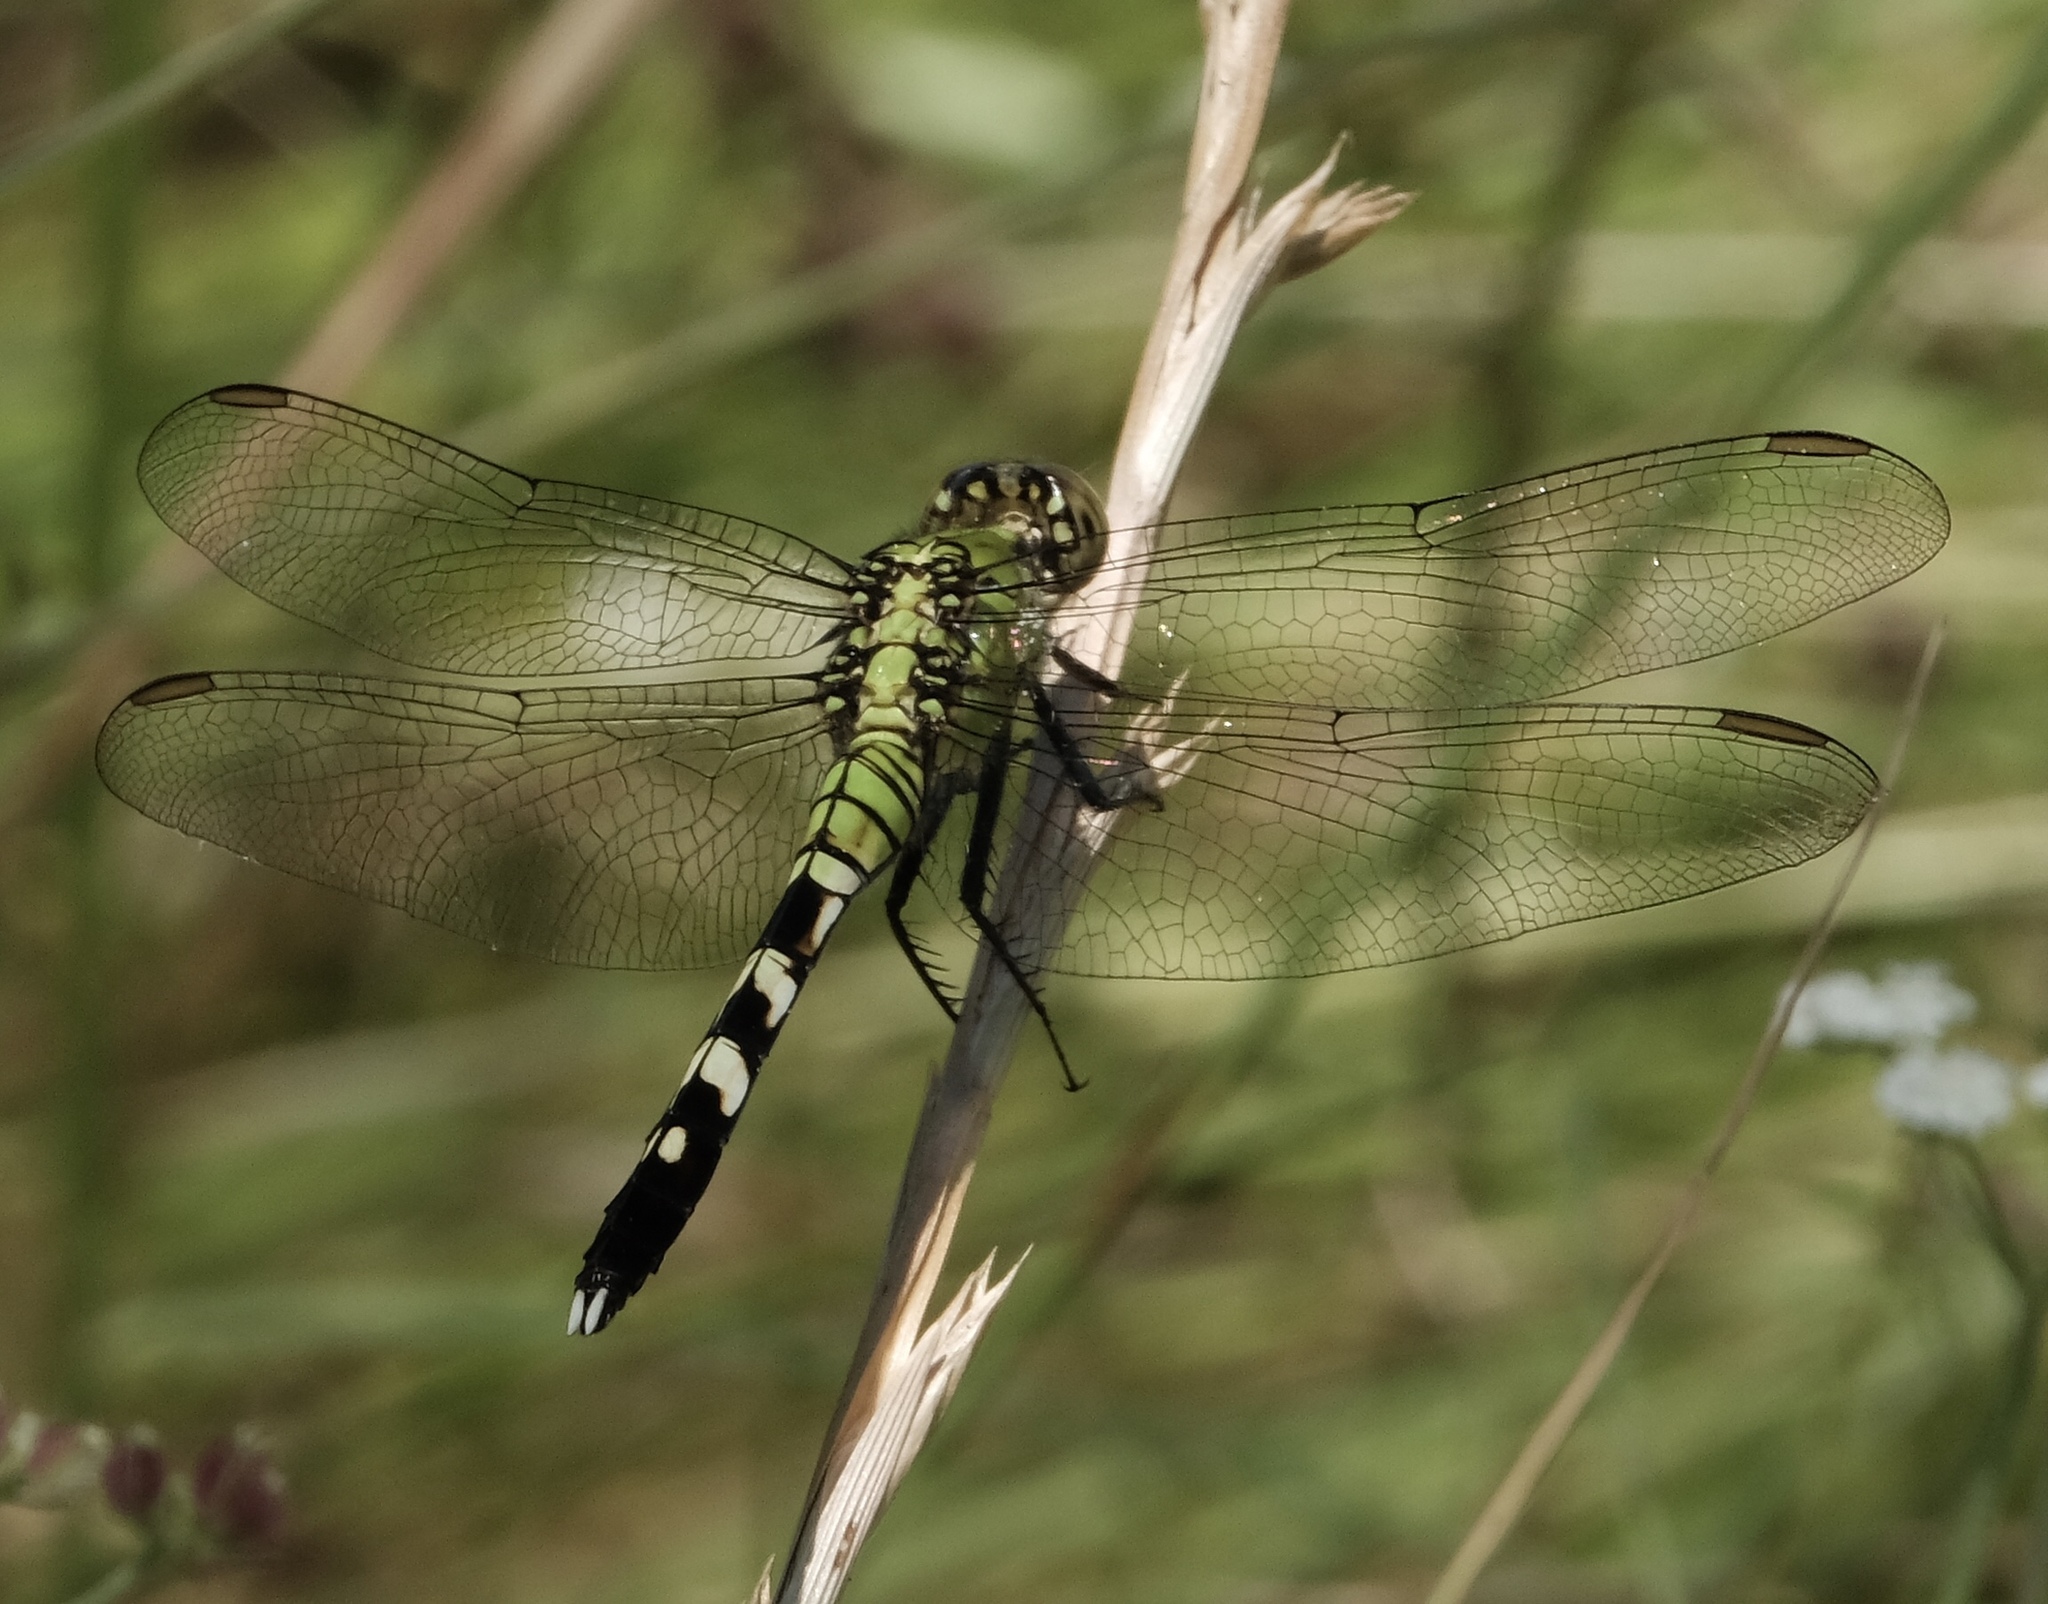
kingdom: Animalia
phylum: Arthropoda
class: Insecta
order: Odonata
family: Libellulidae
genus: Erythemis
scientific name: Erythemis simplicicollis
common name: Eastern pondhawk
